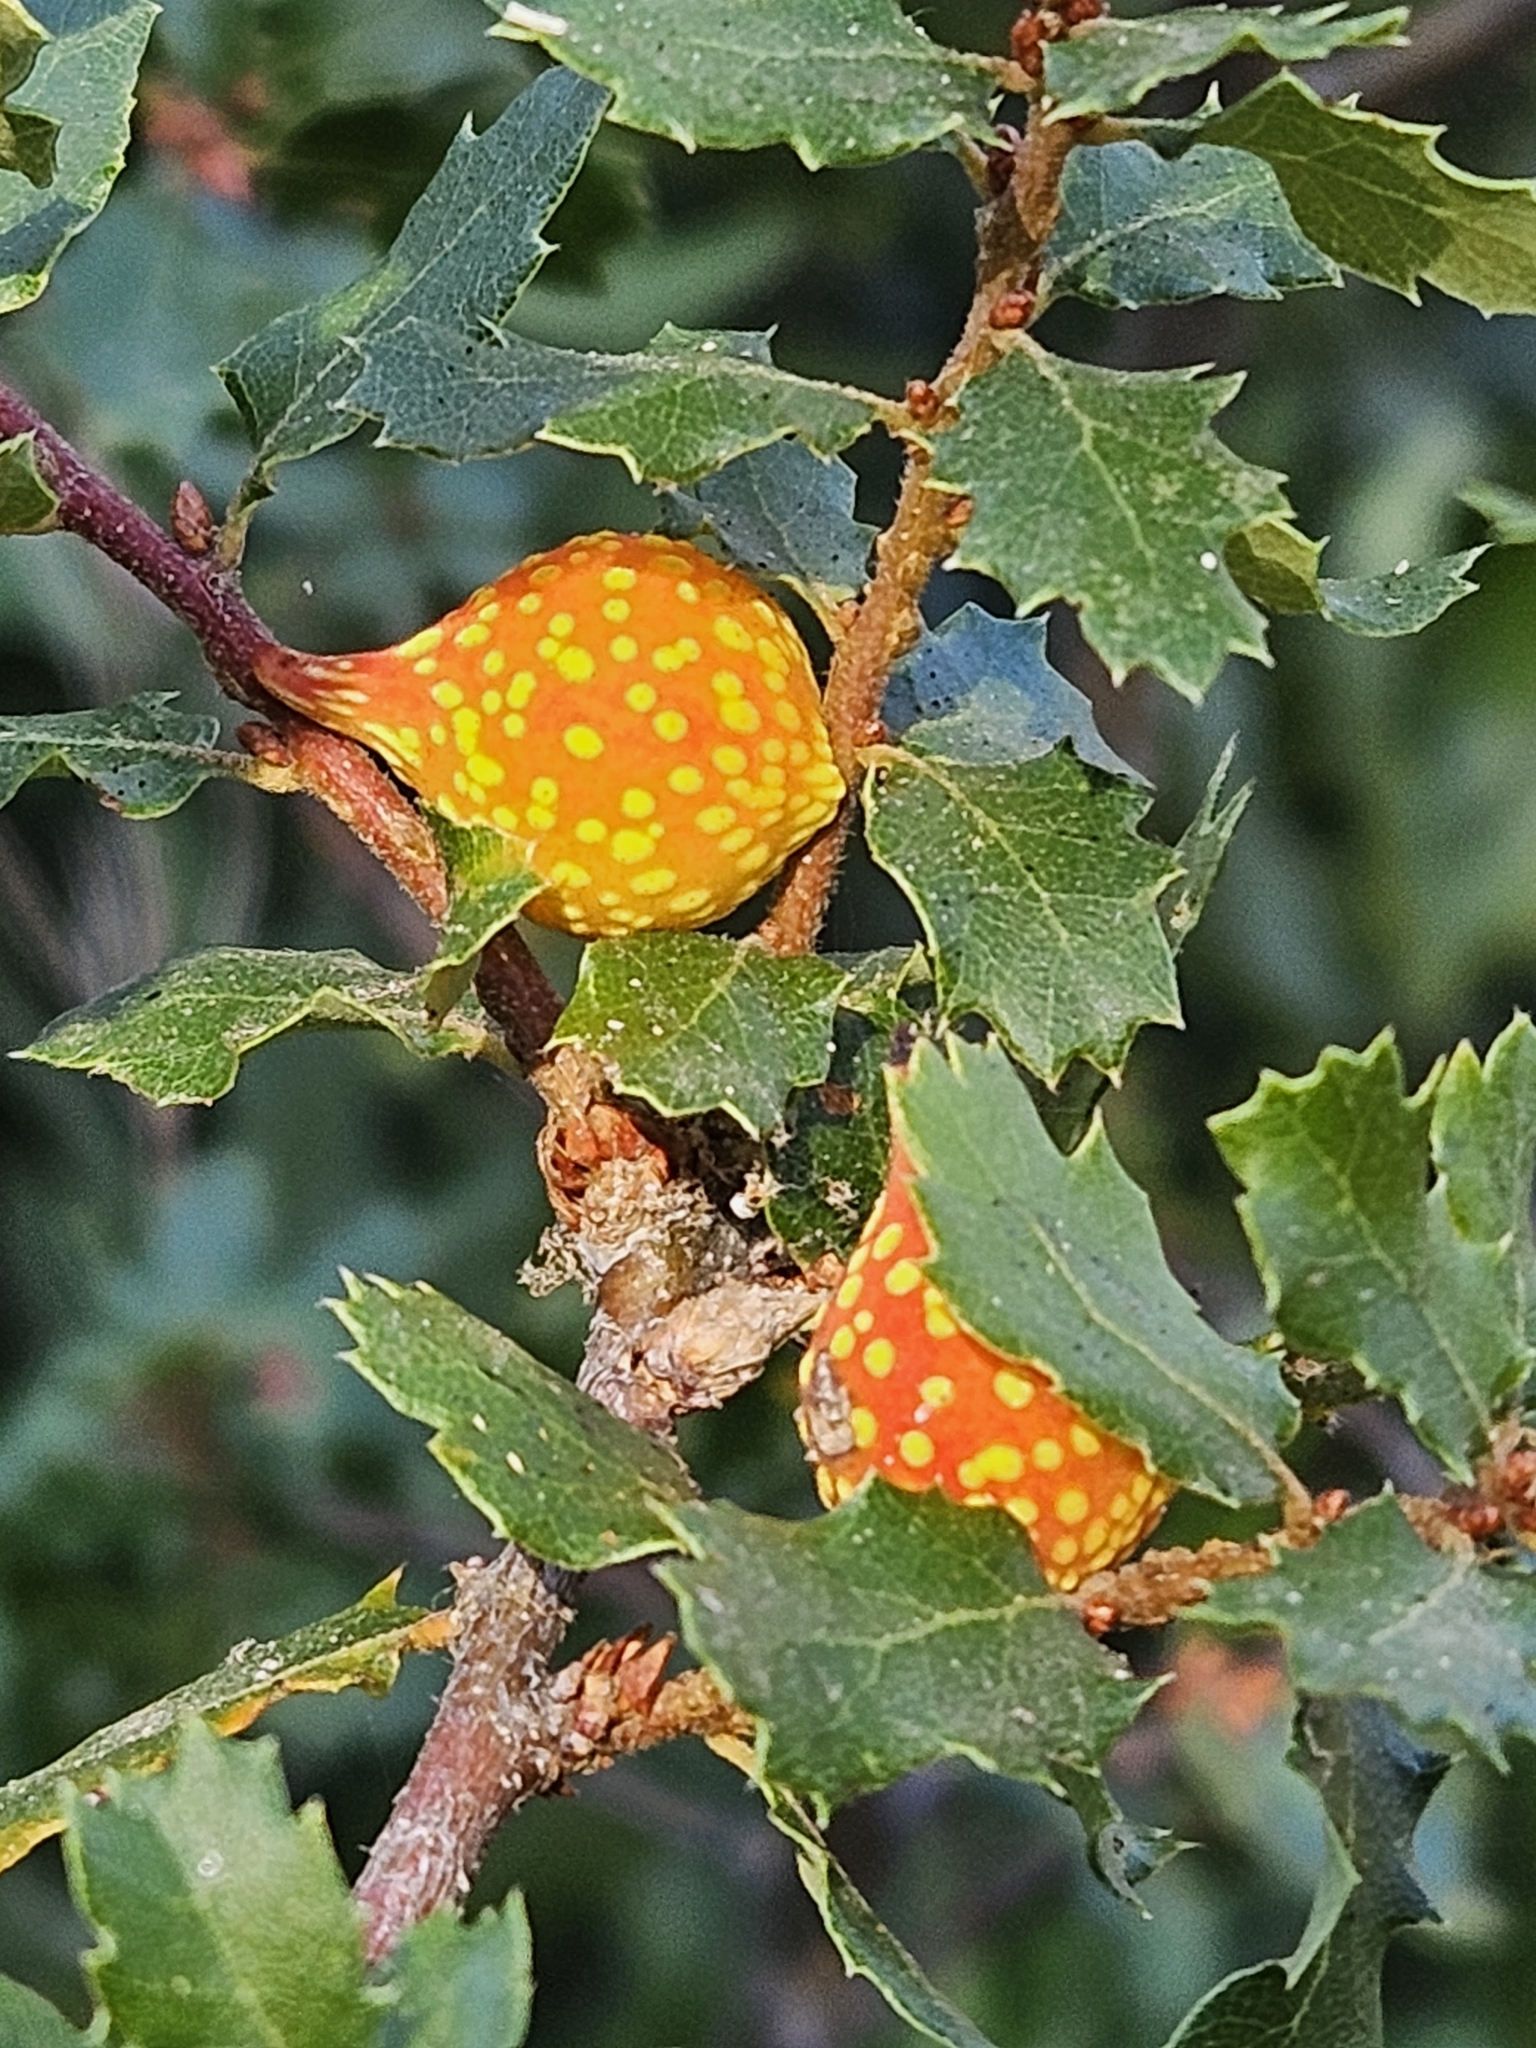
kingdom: Animalia
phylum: Arthropoda
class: Insecta
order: Hymenoptera
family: Cynipidae
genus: Burnettweldia
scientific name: Burnettweldia
